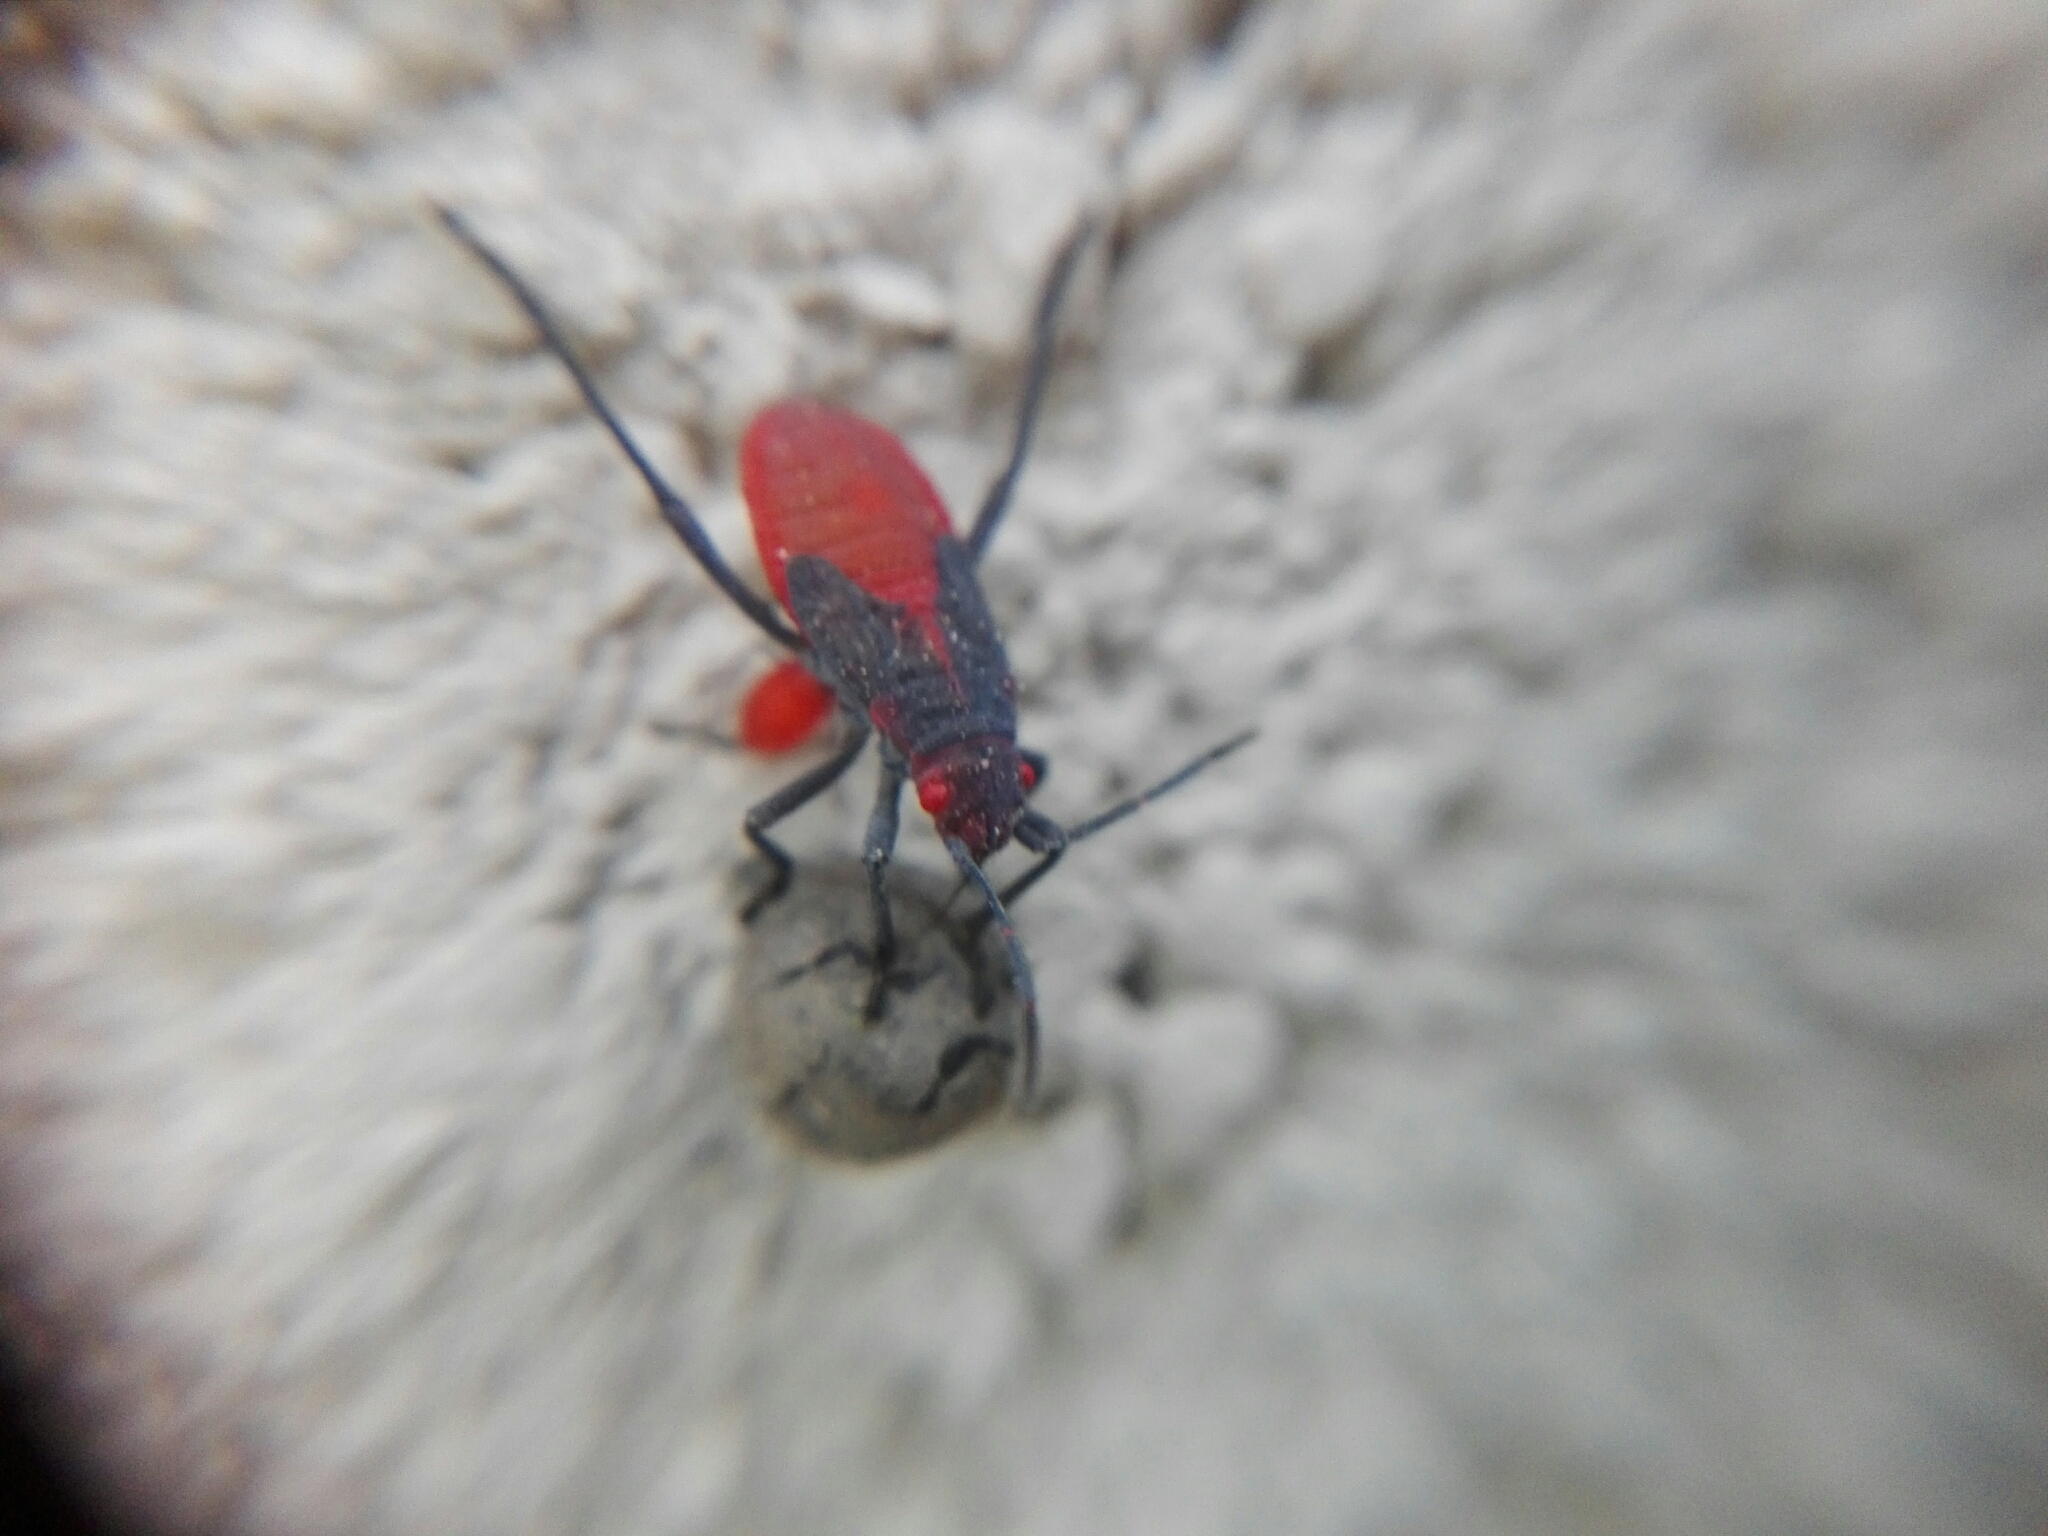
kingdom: Animalia
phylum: Arthropoda
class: Insecta
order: Hemiptera
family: Rhopalidae
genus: Jadera
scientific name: Jadera haematoloma
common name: Red-shouldered bug
